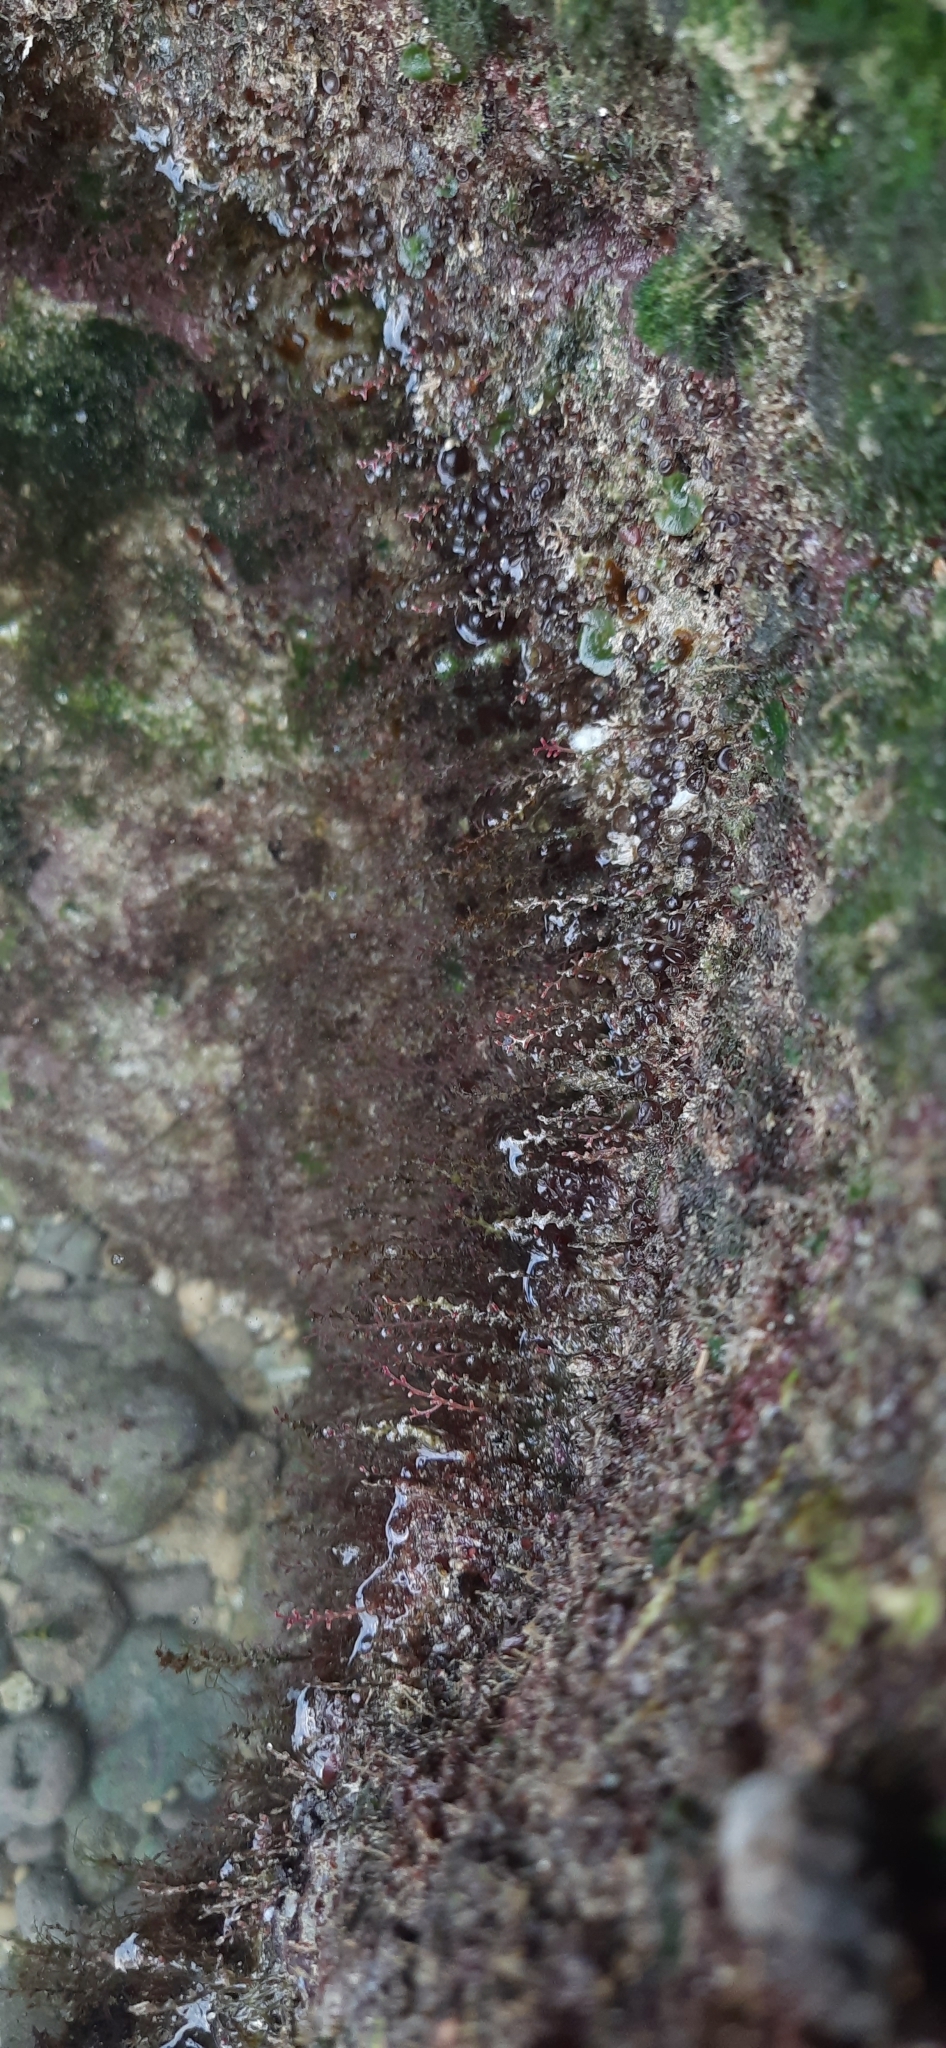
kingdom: Animalia
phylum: Cnidaria
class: Hydrozoa
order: Anthoathecata
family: Pennariidae
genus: Pennaria
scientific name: Pennaria disticha
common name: Feather hydroid
